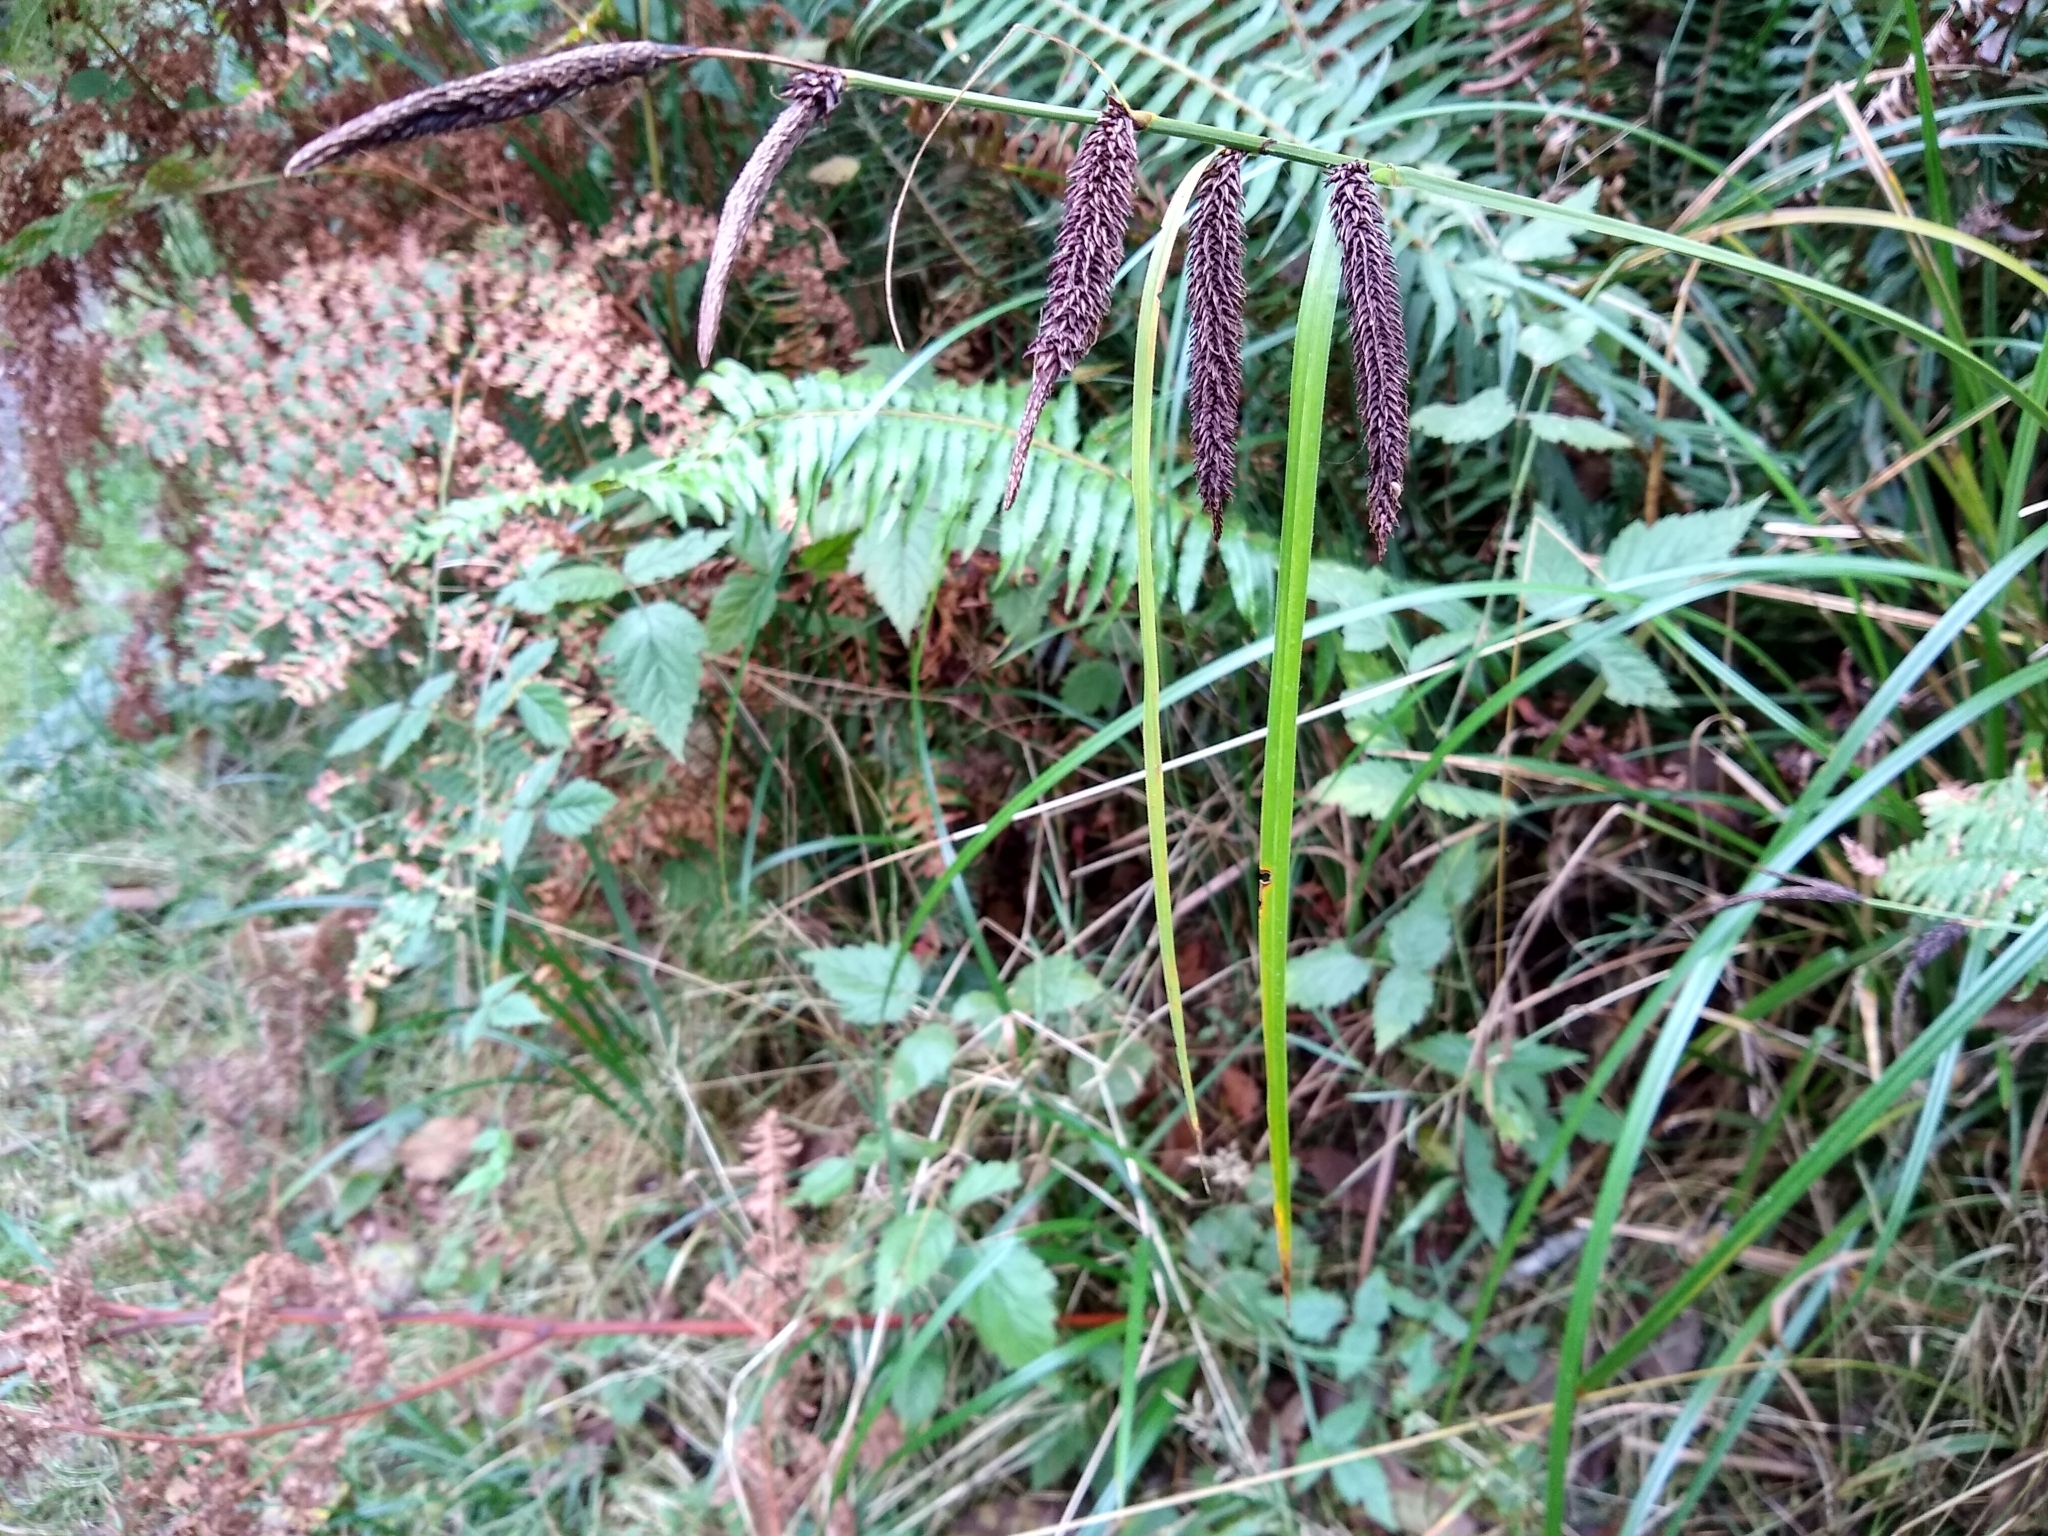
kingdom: Plantae
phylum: Tracheophyta
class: Liliopsida
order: Poales
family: Cyperaceae
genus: Carex
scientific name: Carex obnupta
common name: Slough sedge
